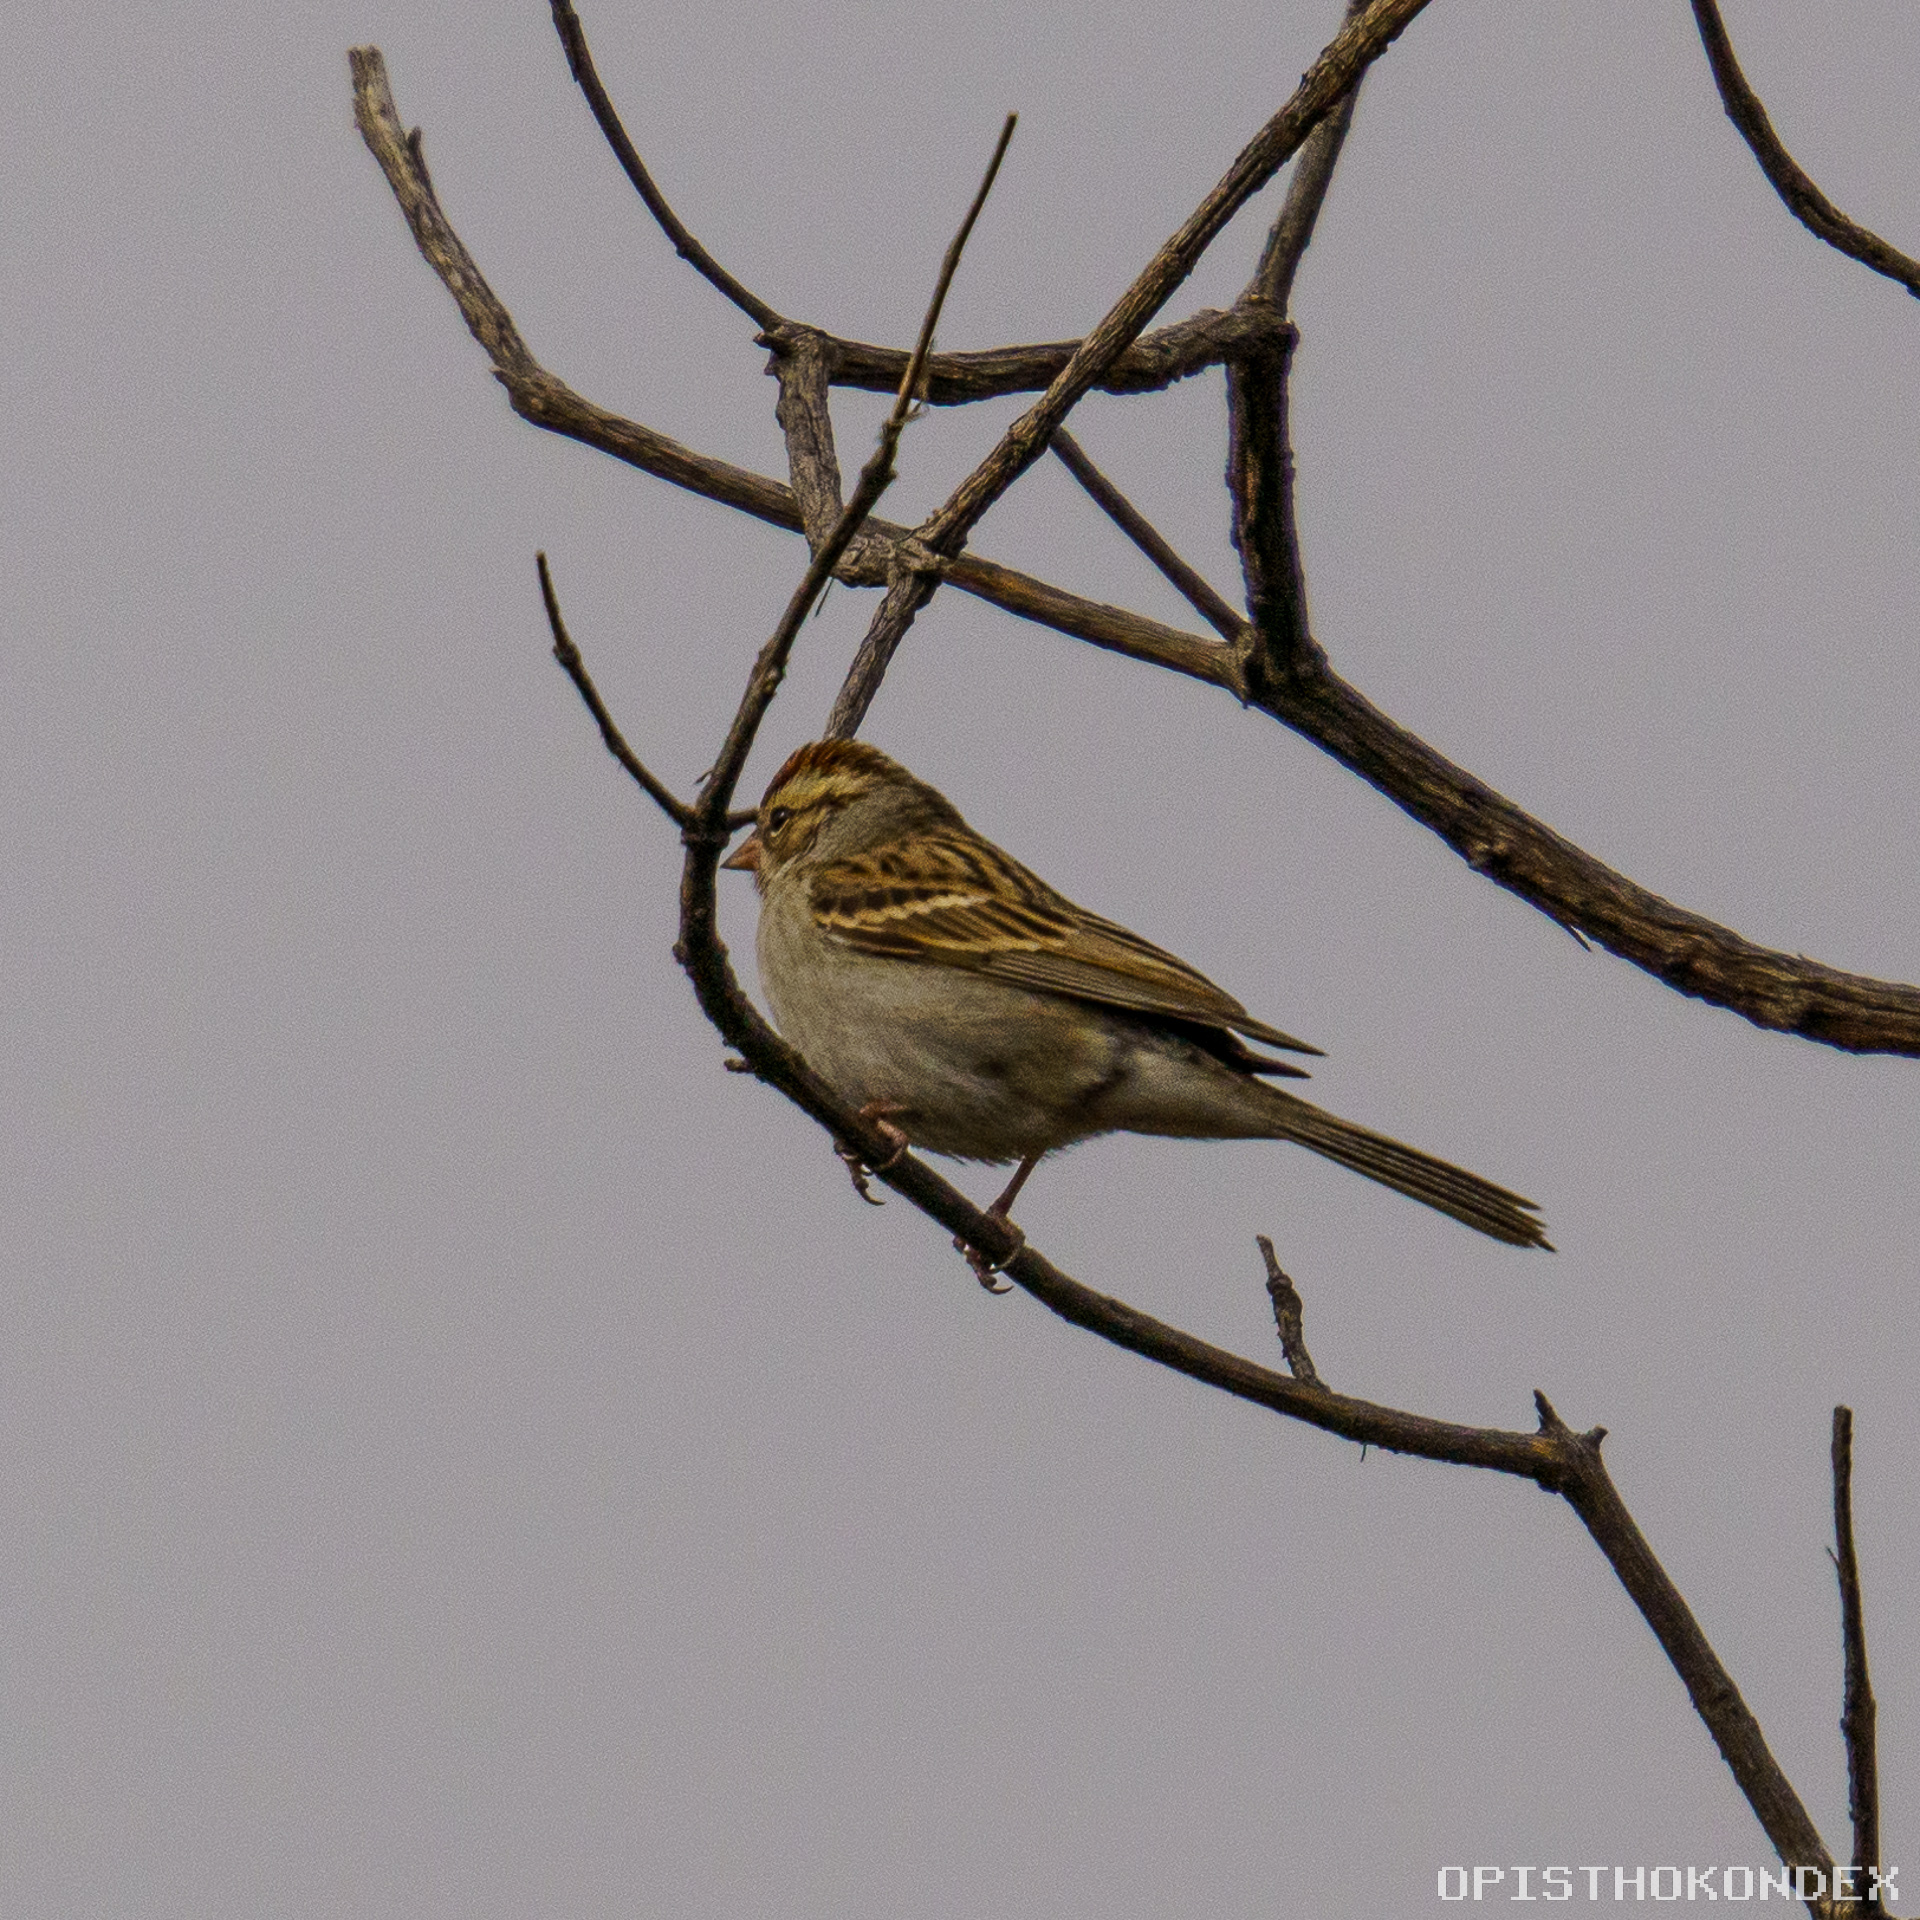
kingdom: Animalia
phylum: Chordata
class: Aves
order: Passeriformes
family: Passerellidae
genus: Spizella
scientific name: Spizella pallida
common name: Clay-colored sparrow
